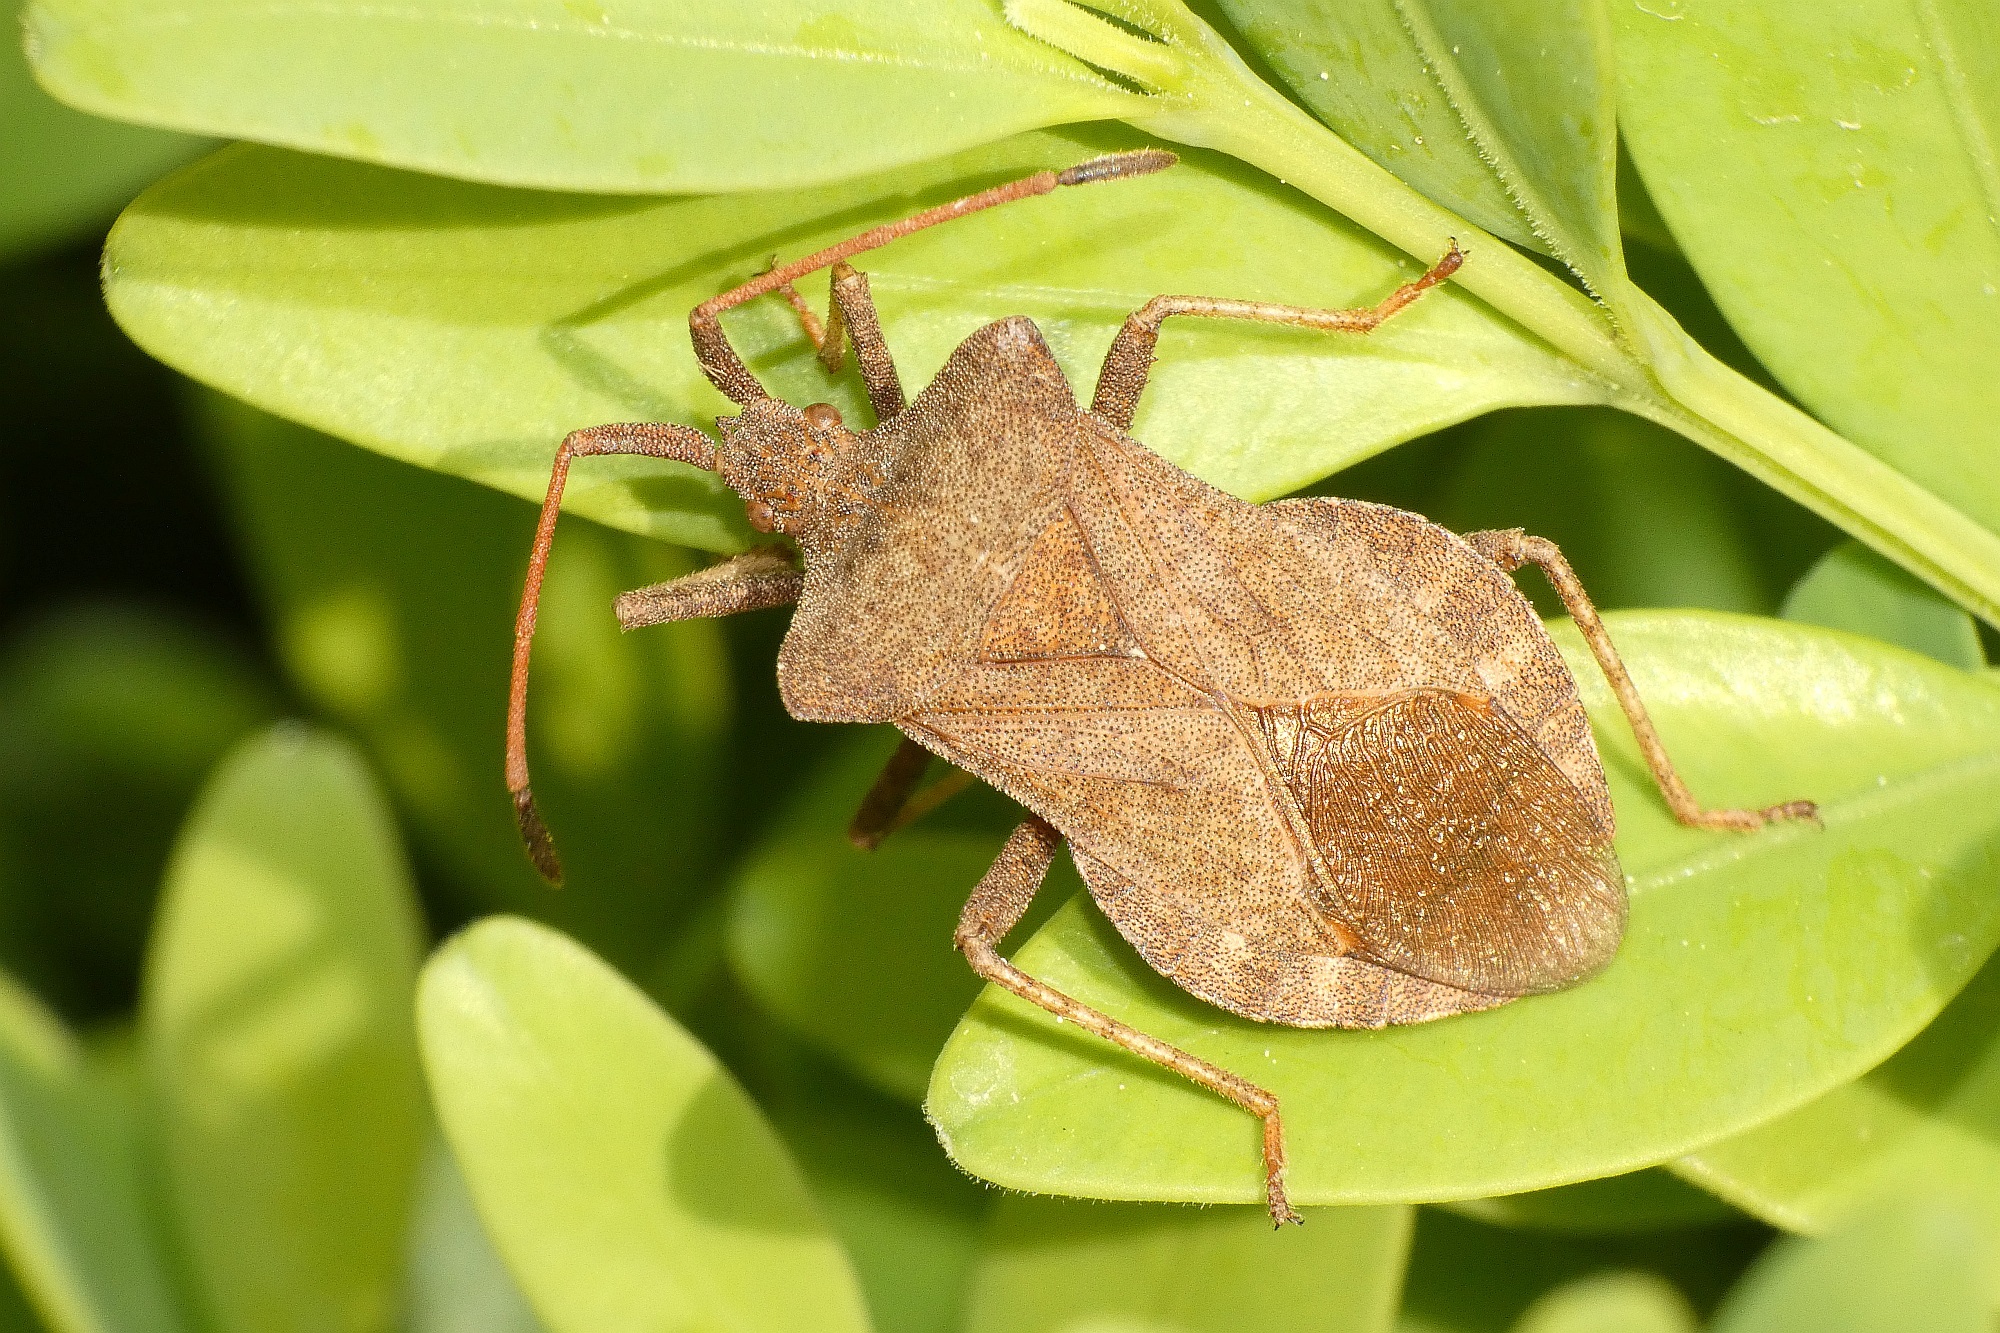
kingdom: Animalia
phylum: Arthropoda
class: Insecta
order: Hemiptera
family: Coreidae
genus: Coreus
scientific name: Coreus marginatus
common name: Dock bug
